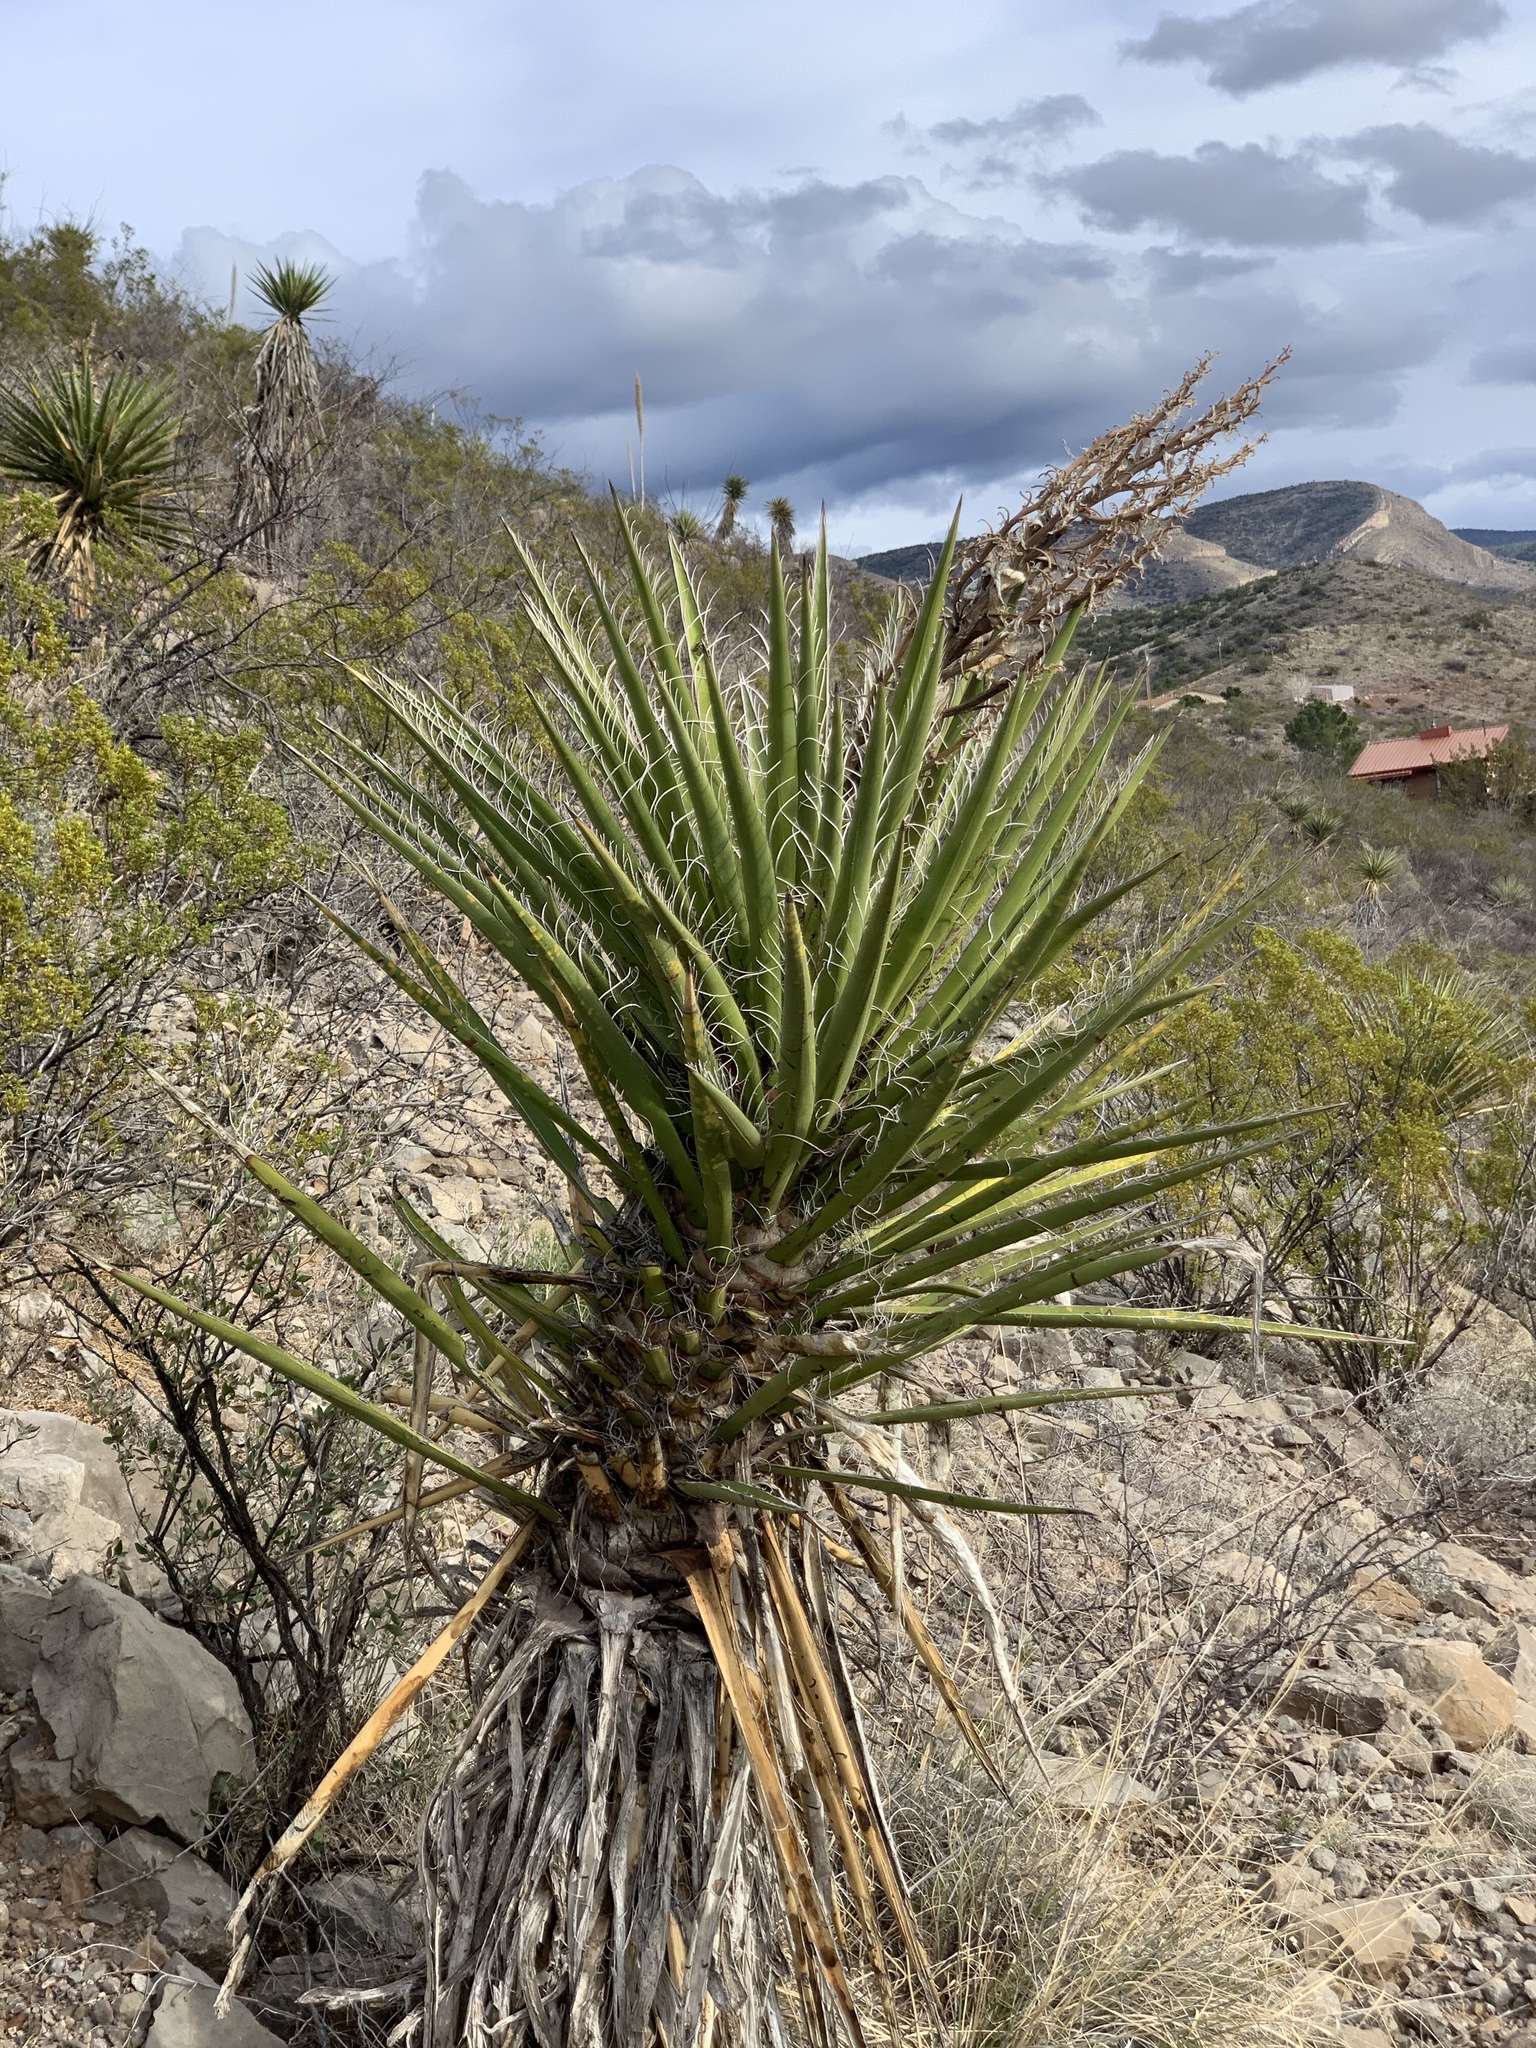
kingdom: Plantae
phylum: Tracheophyta
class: Liliopsida
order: Asparagales
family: Asparagaceae
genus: Yucca
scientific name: Yucca treculiana
